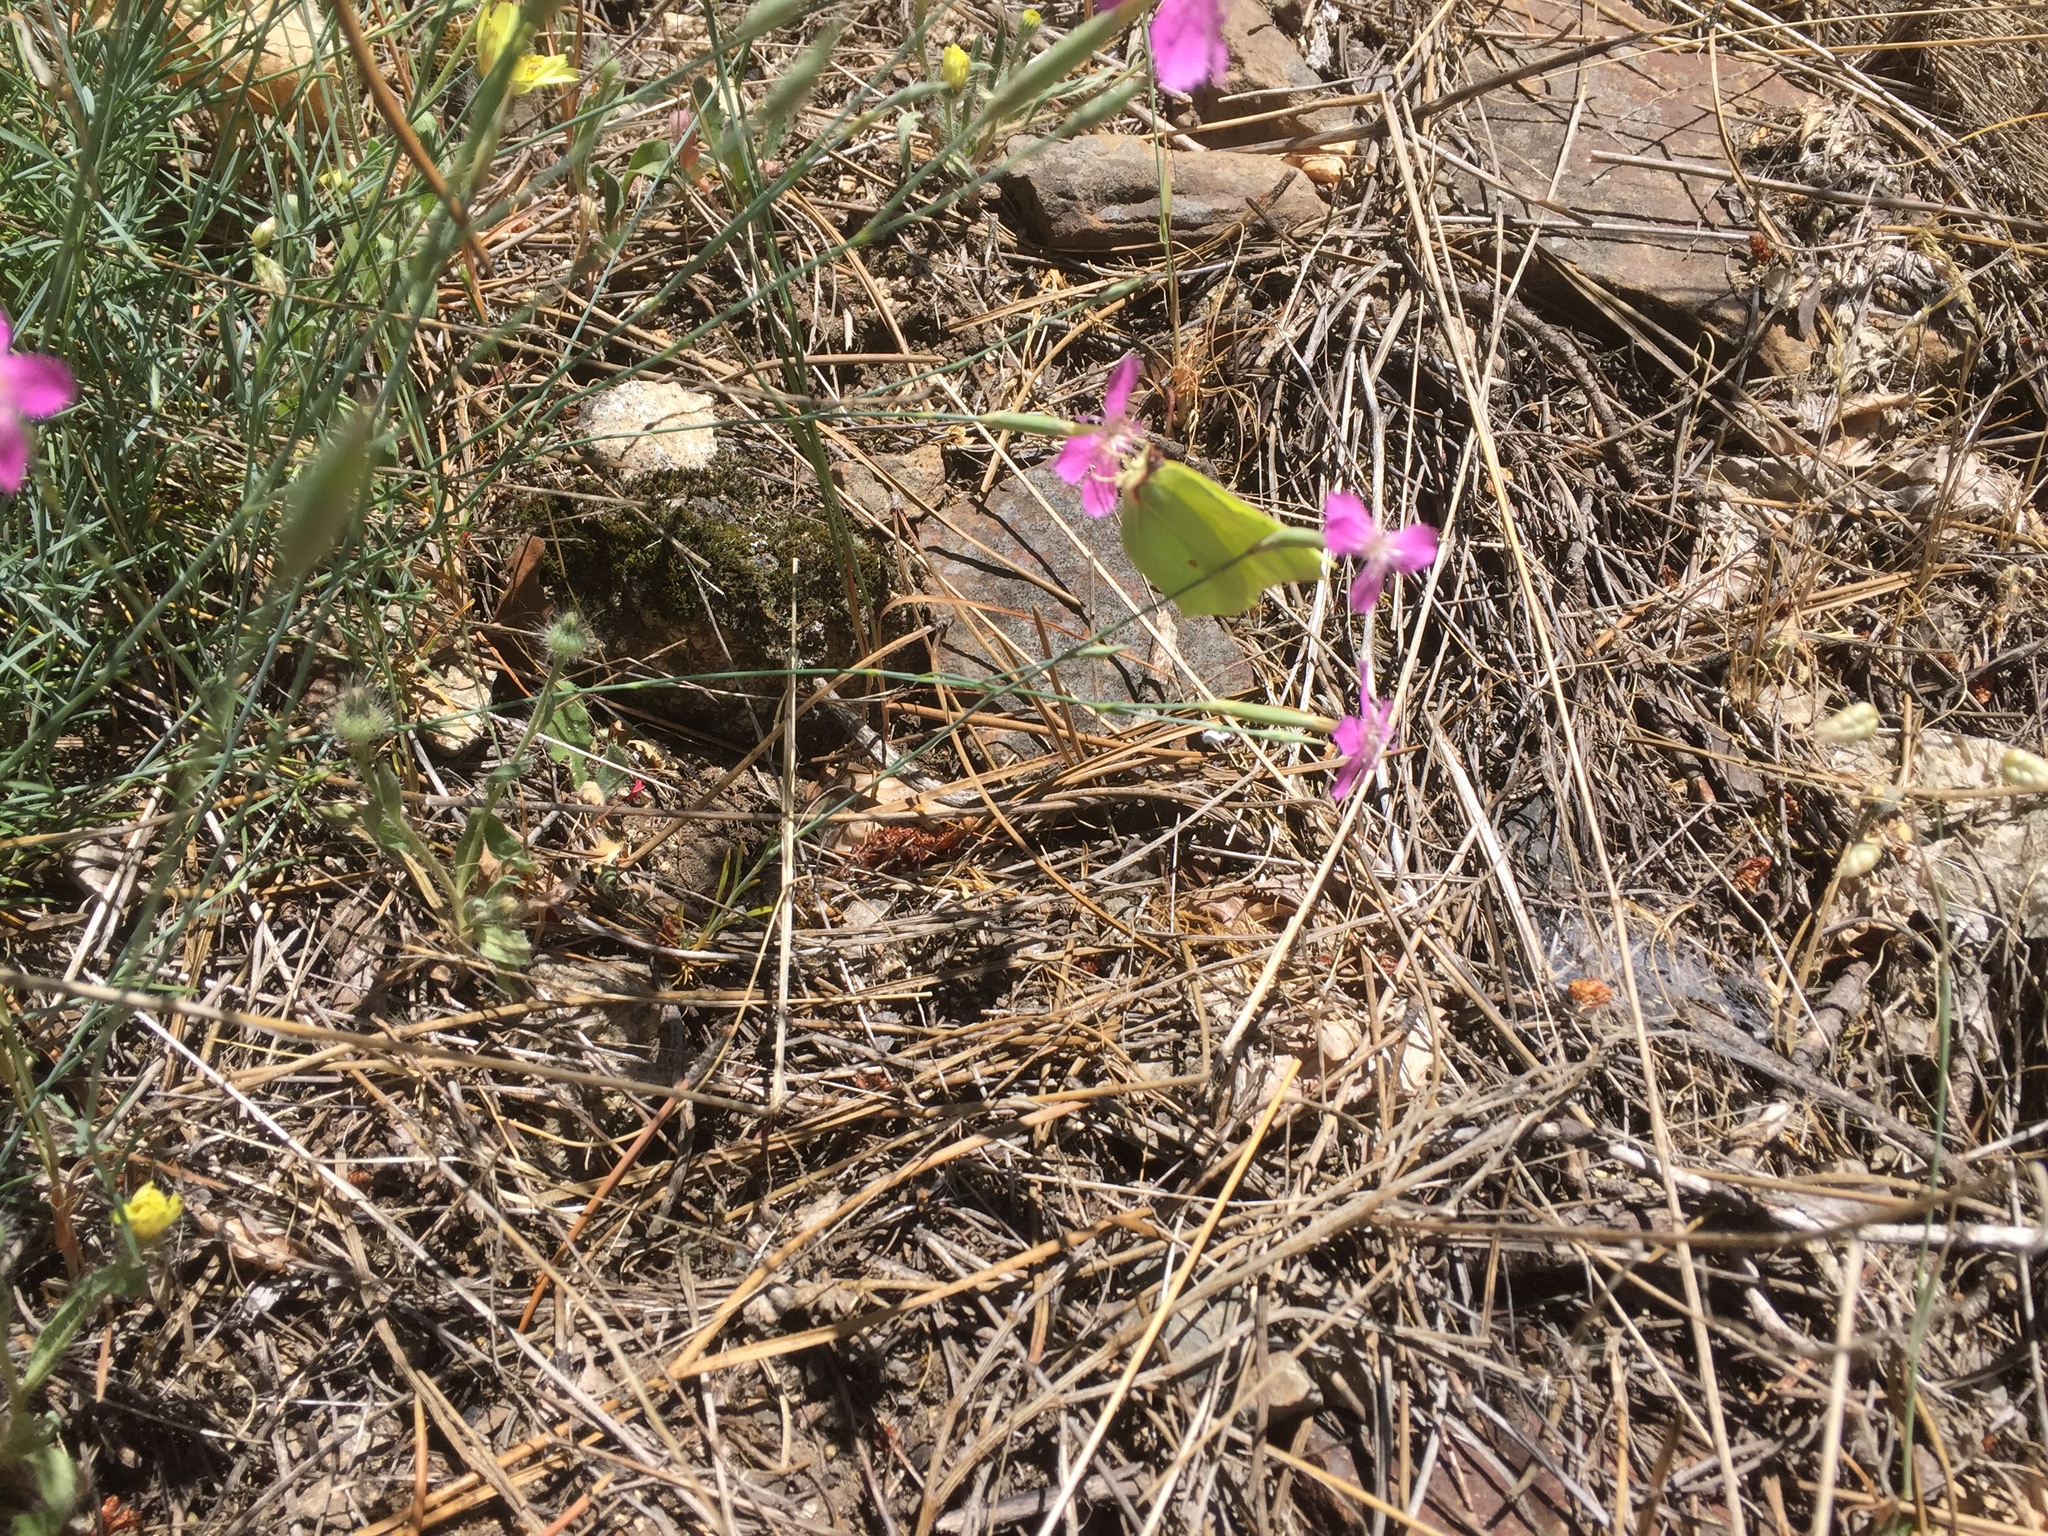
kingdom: Animalia
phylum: Arthropoda
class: Insecta
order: Lepidoptera
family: Pieridae
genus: Gonepteryx
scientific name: Gonepteryx rhamni
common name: Brimstone
